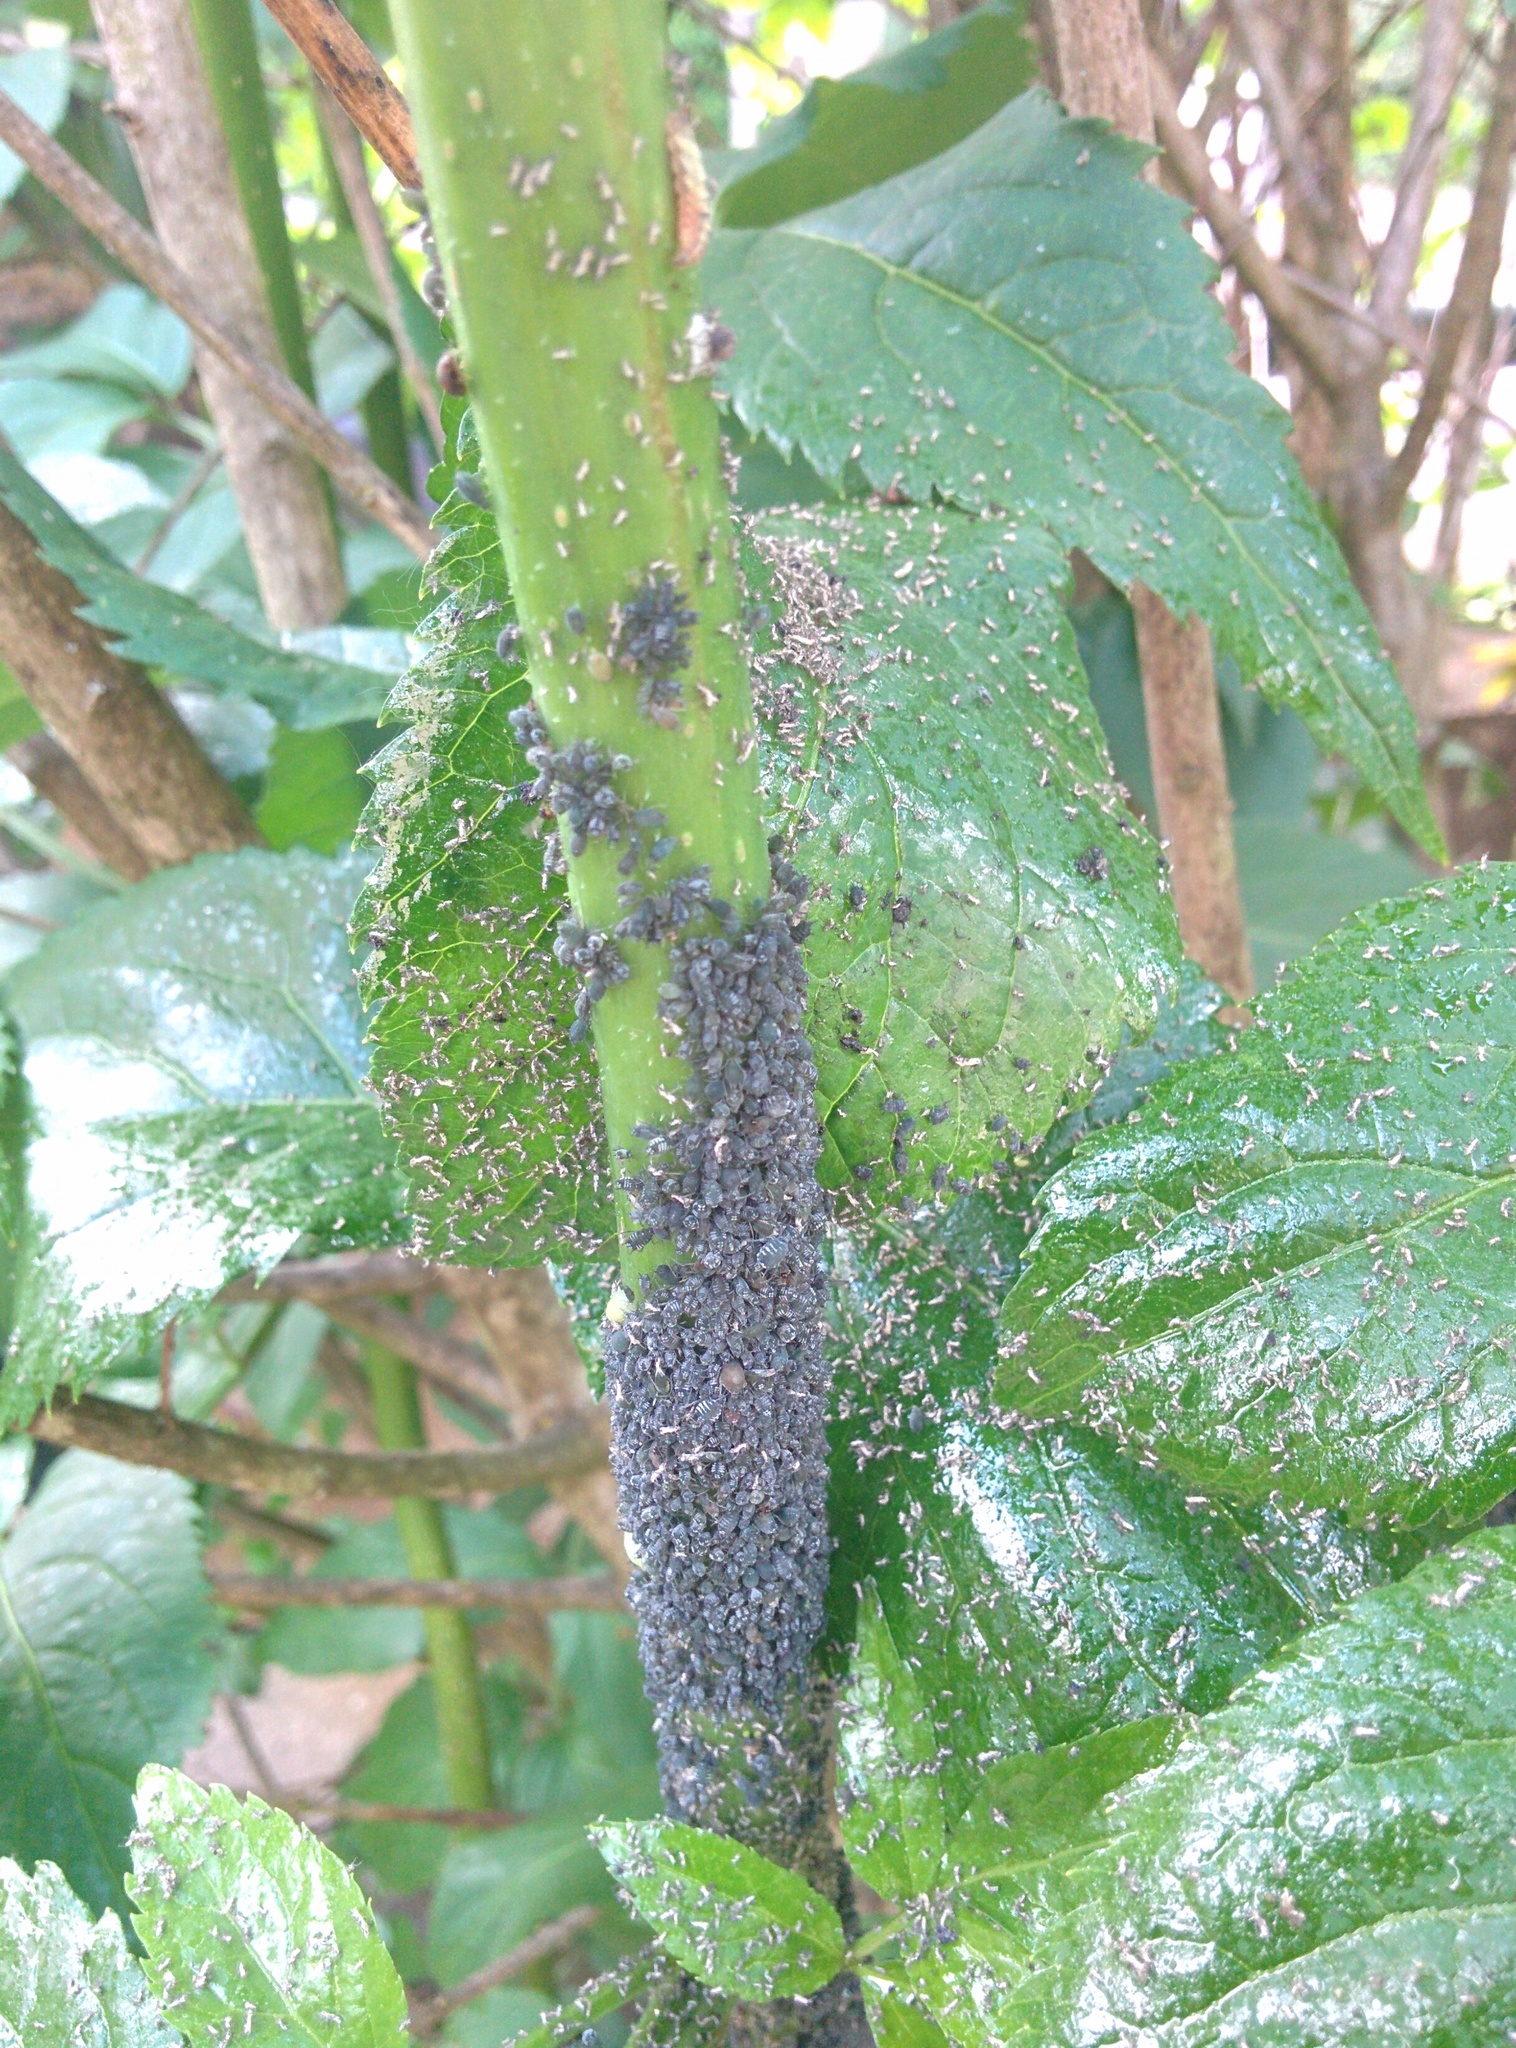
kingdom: Animalia
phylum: Arthropoda
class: Insecta
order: Hemiptera
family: Aphididae
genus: Aphis
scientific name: Aphis sambuci
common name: Elder aphid
